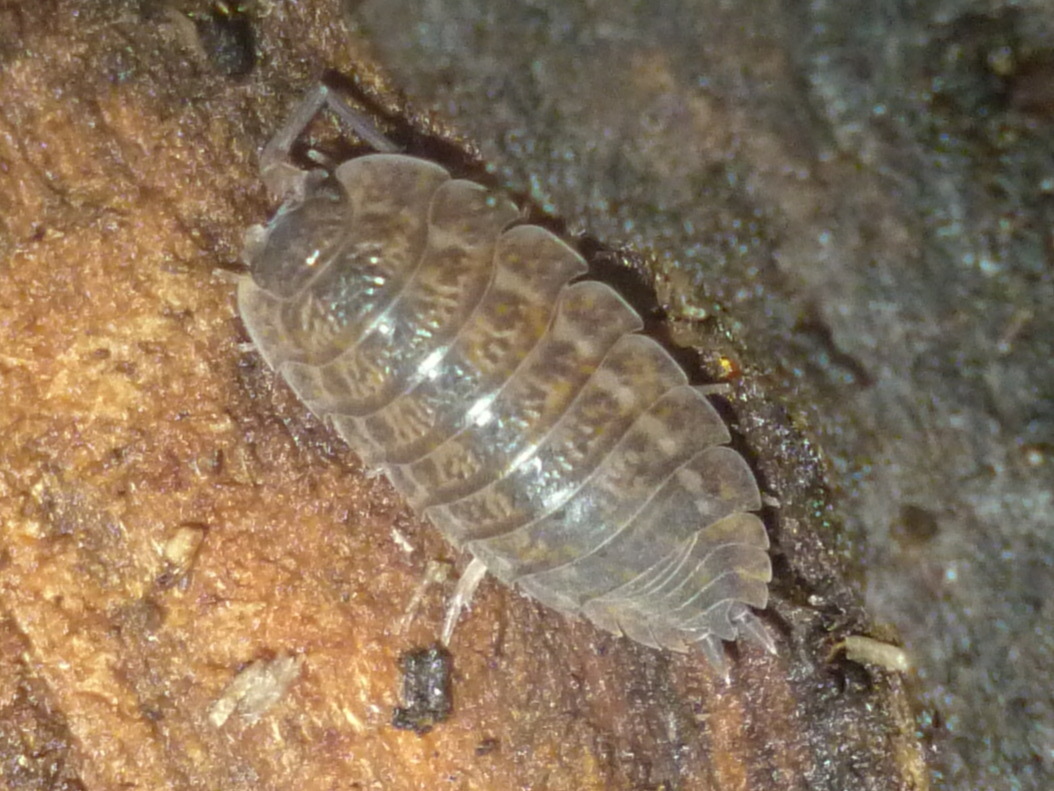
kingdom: Animalia
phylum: Arthropoda
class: Malacostraca
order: Isopoda
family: Trachelipodidae
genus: Trachelipus
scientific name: Trachelipus rathkii
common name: Isopod
